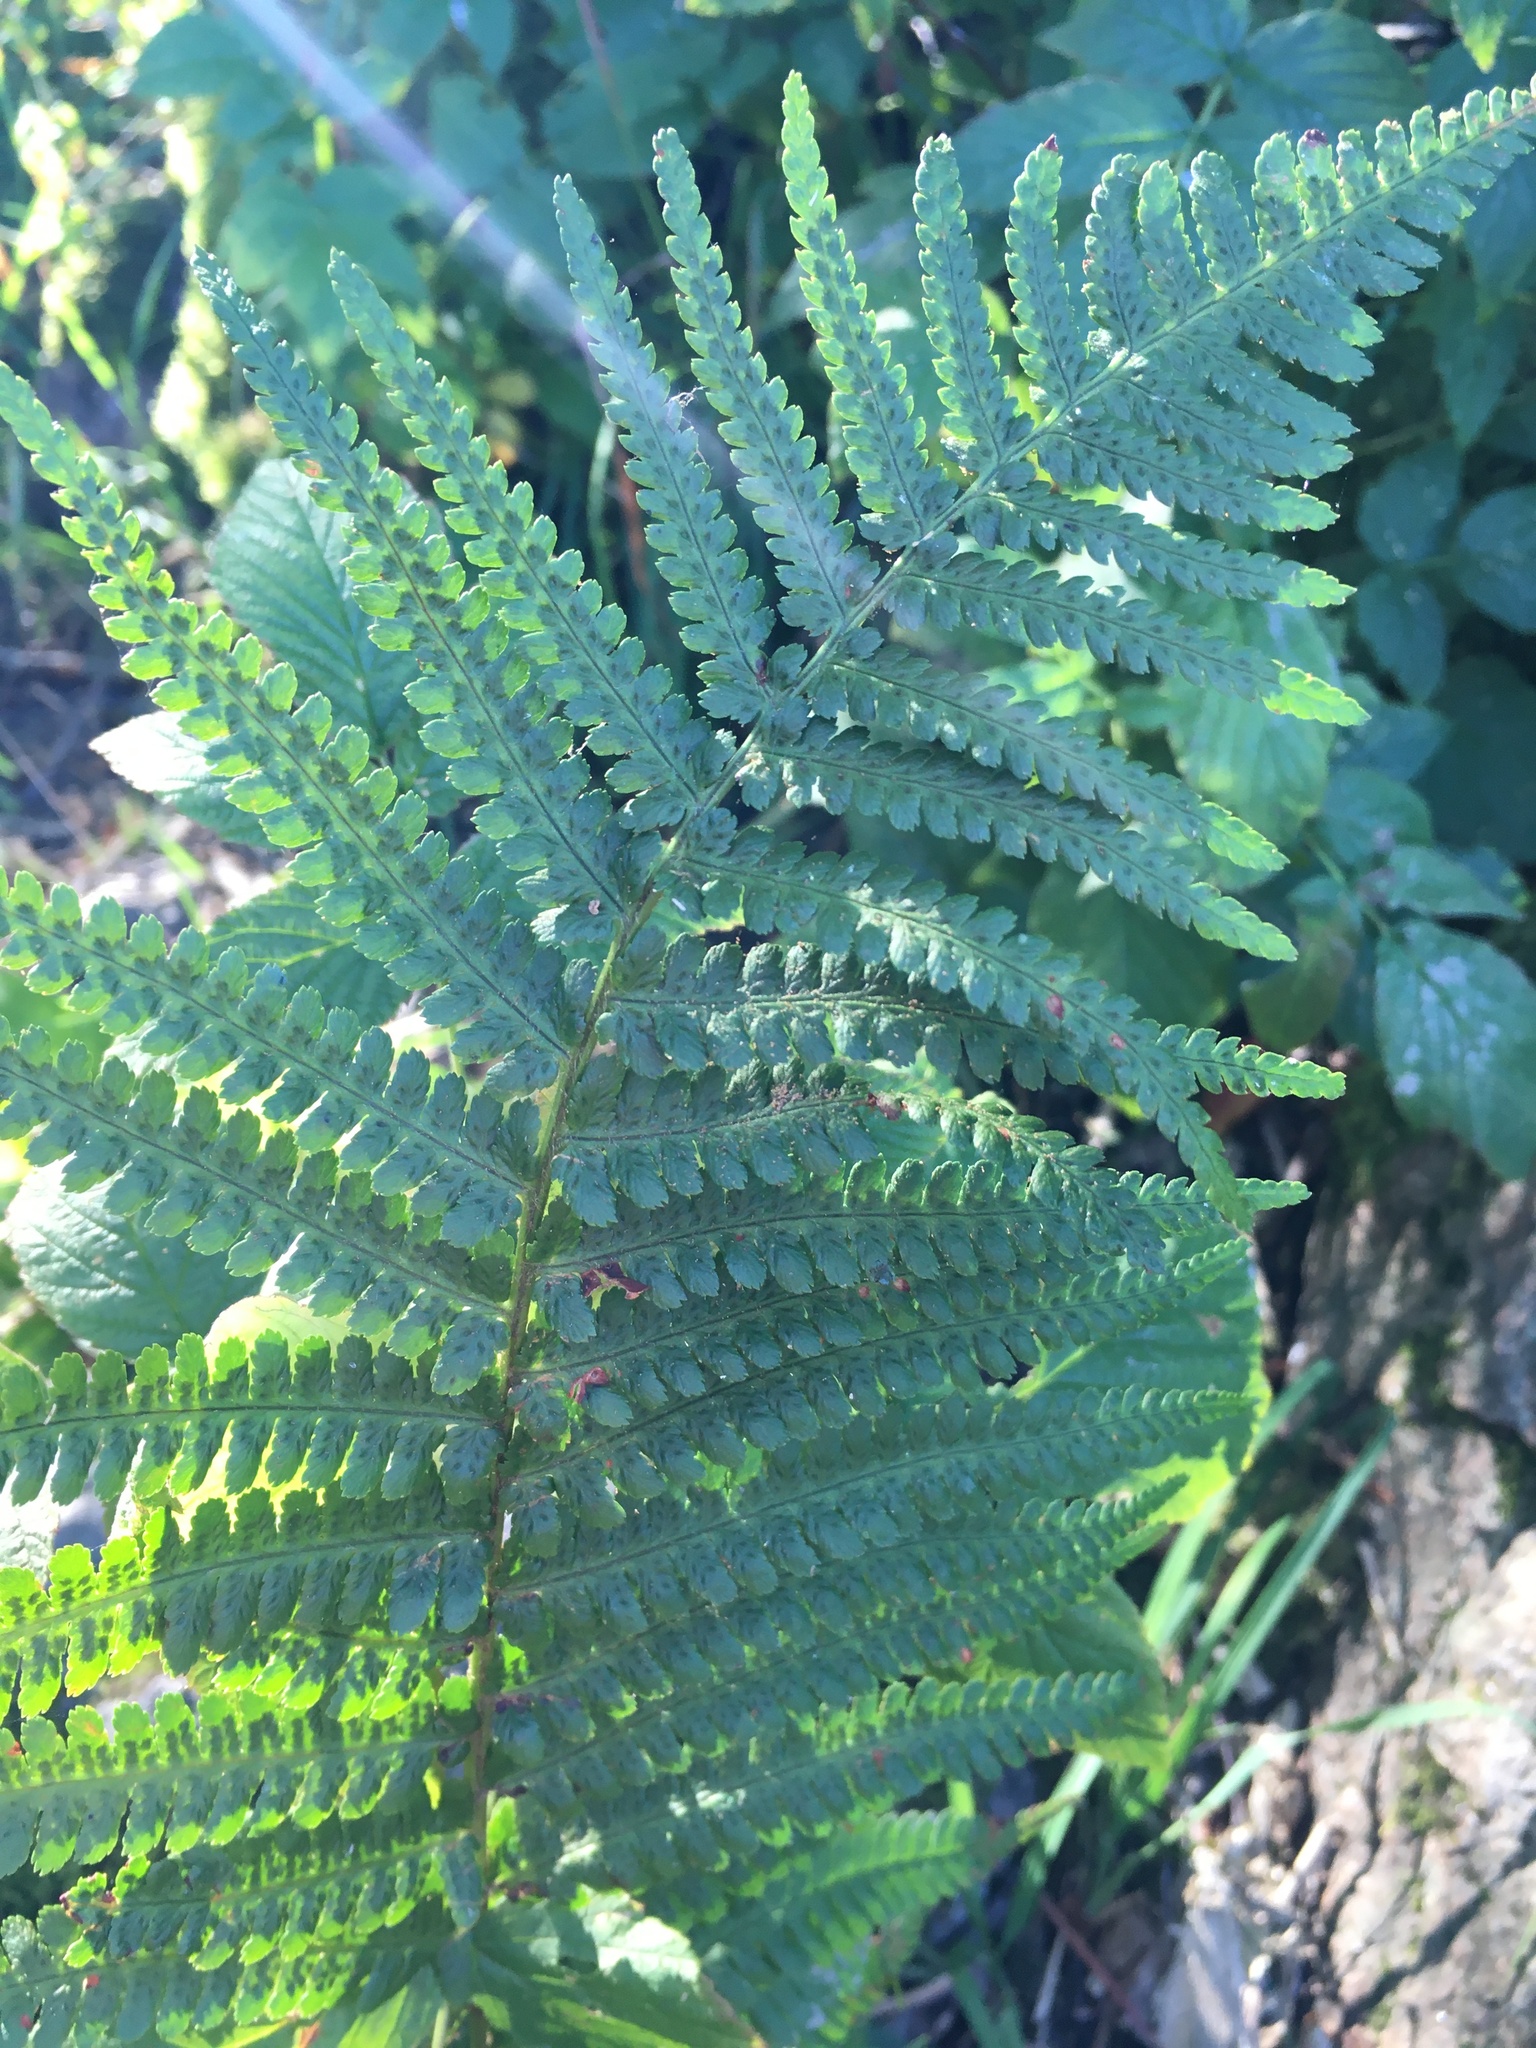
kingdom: Plantae
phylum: Tracheophyta
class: Polypodiopsida
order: Polypodiales
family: Athyriaceae
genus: Athyrium
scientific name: Athyrium filix-femina
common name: Lady fern
